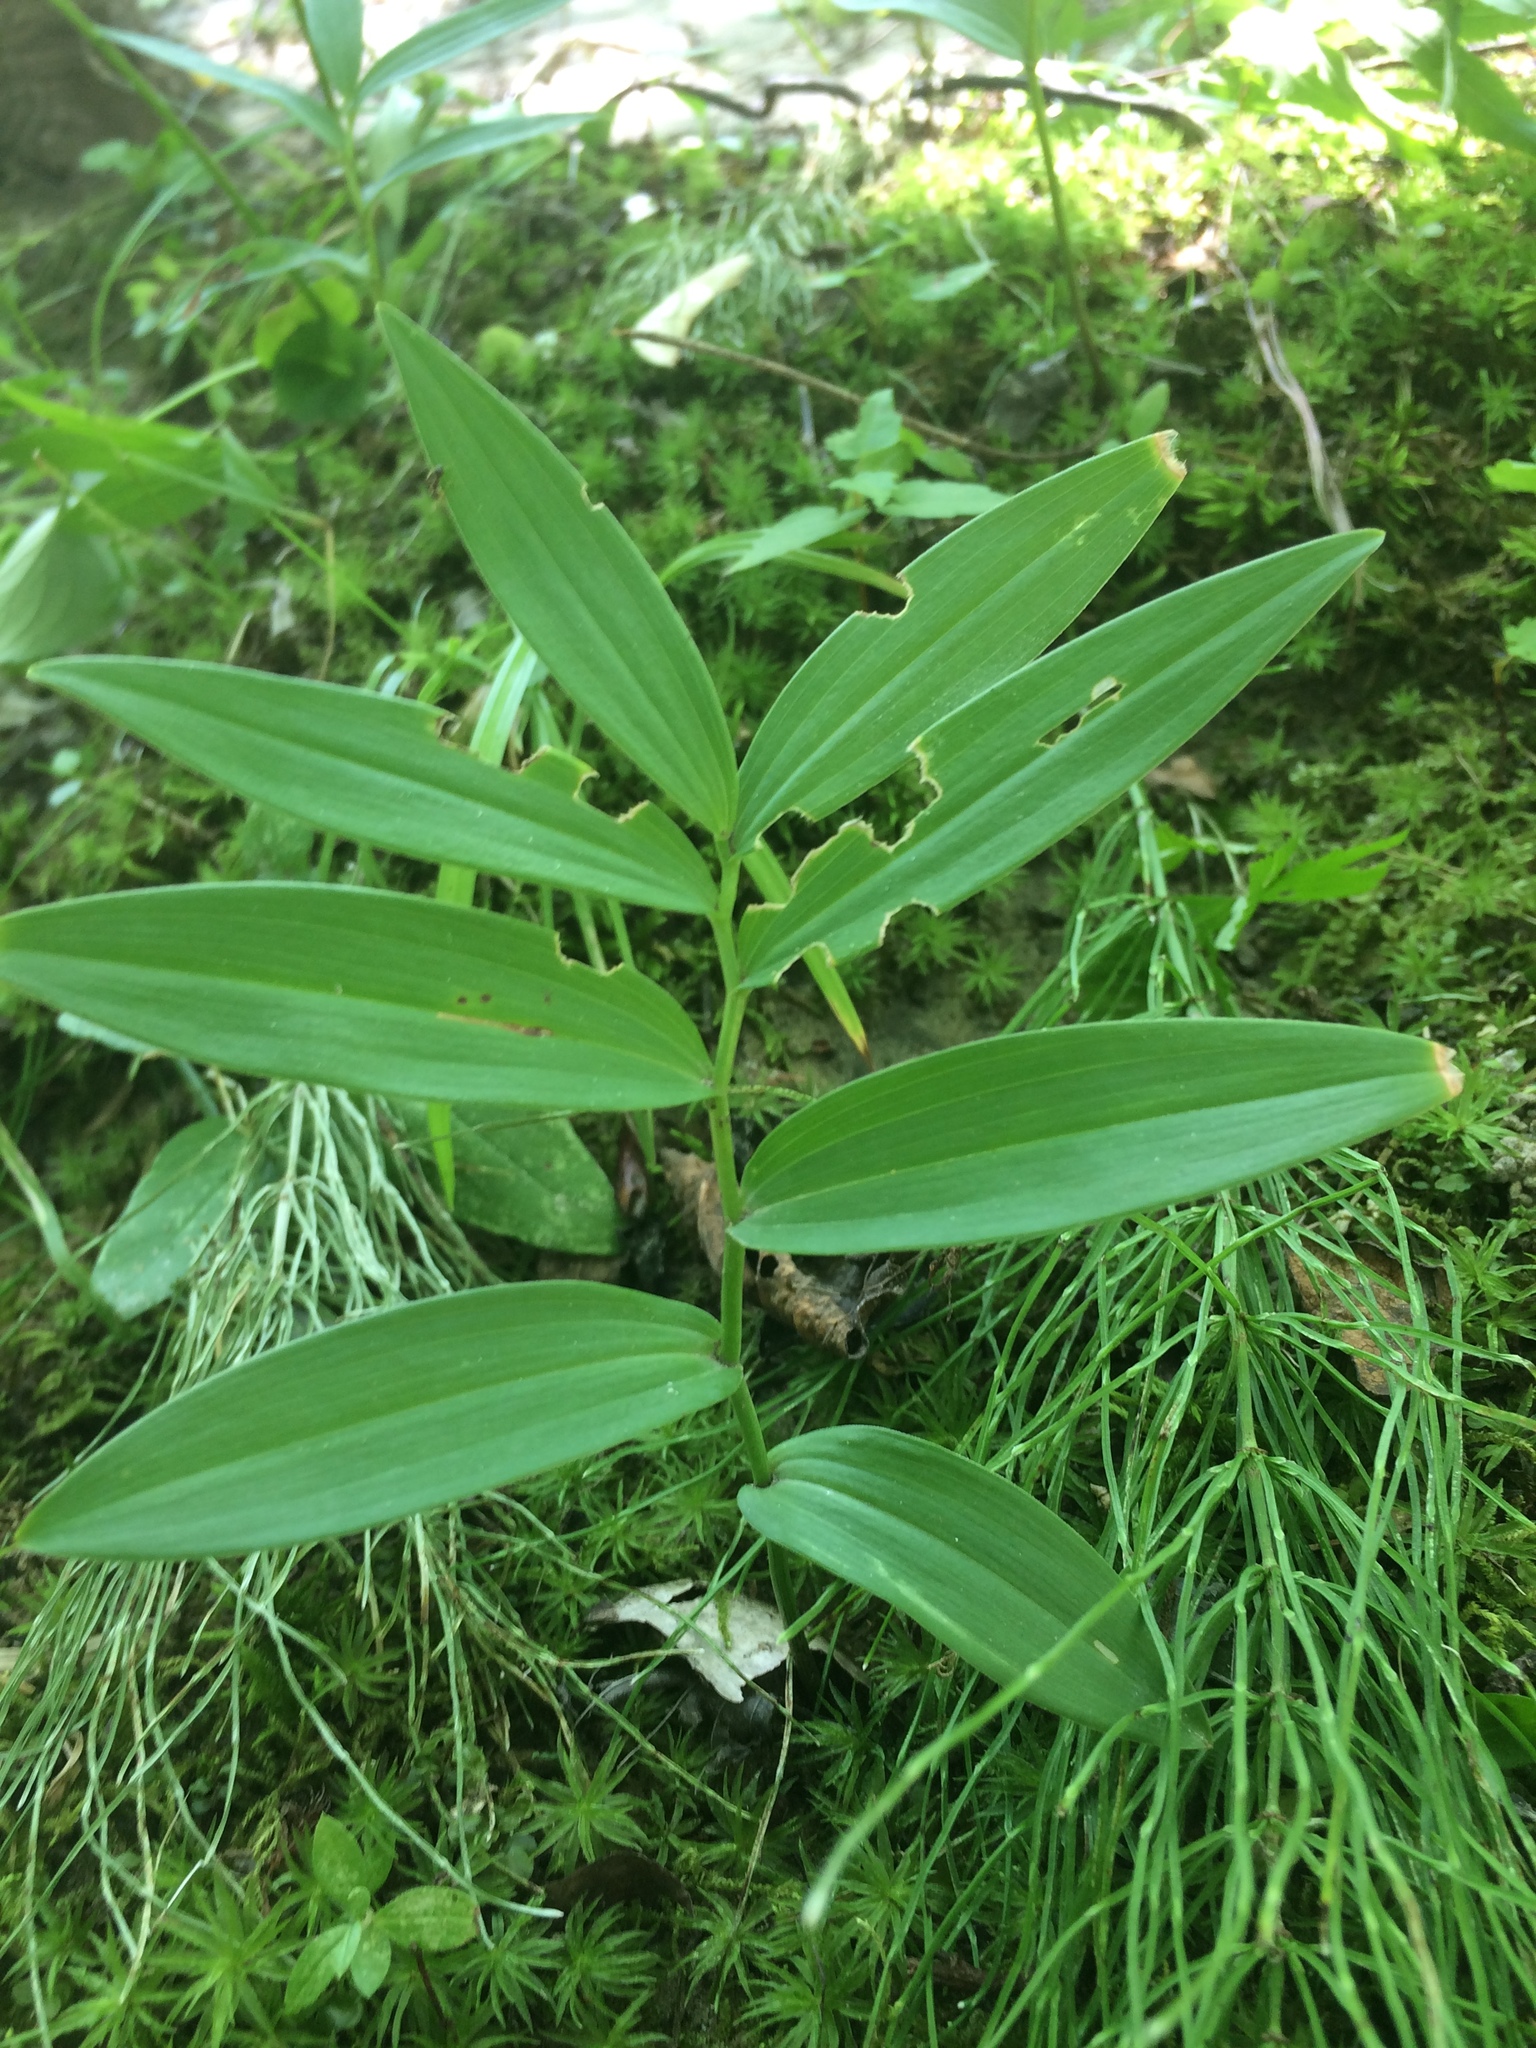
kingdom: Plantae
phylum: Tracheophyta
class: Liliopsida
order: Asparagales
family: Asparagaceae
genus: Maianthemum
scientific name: Maianthemum stellatum
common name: Little false solomon's seal
